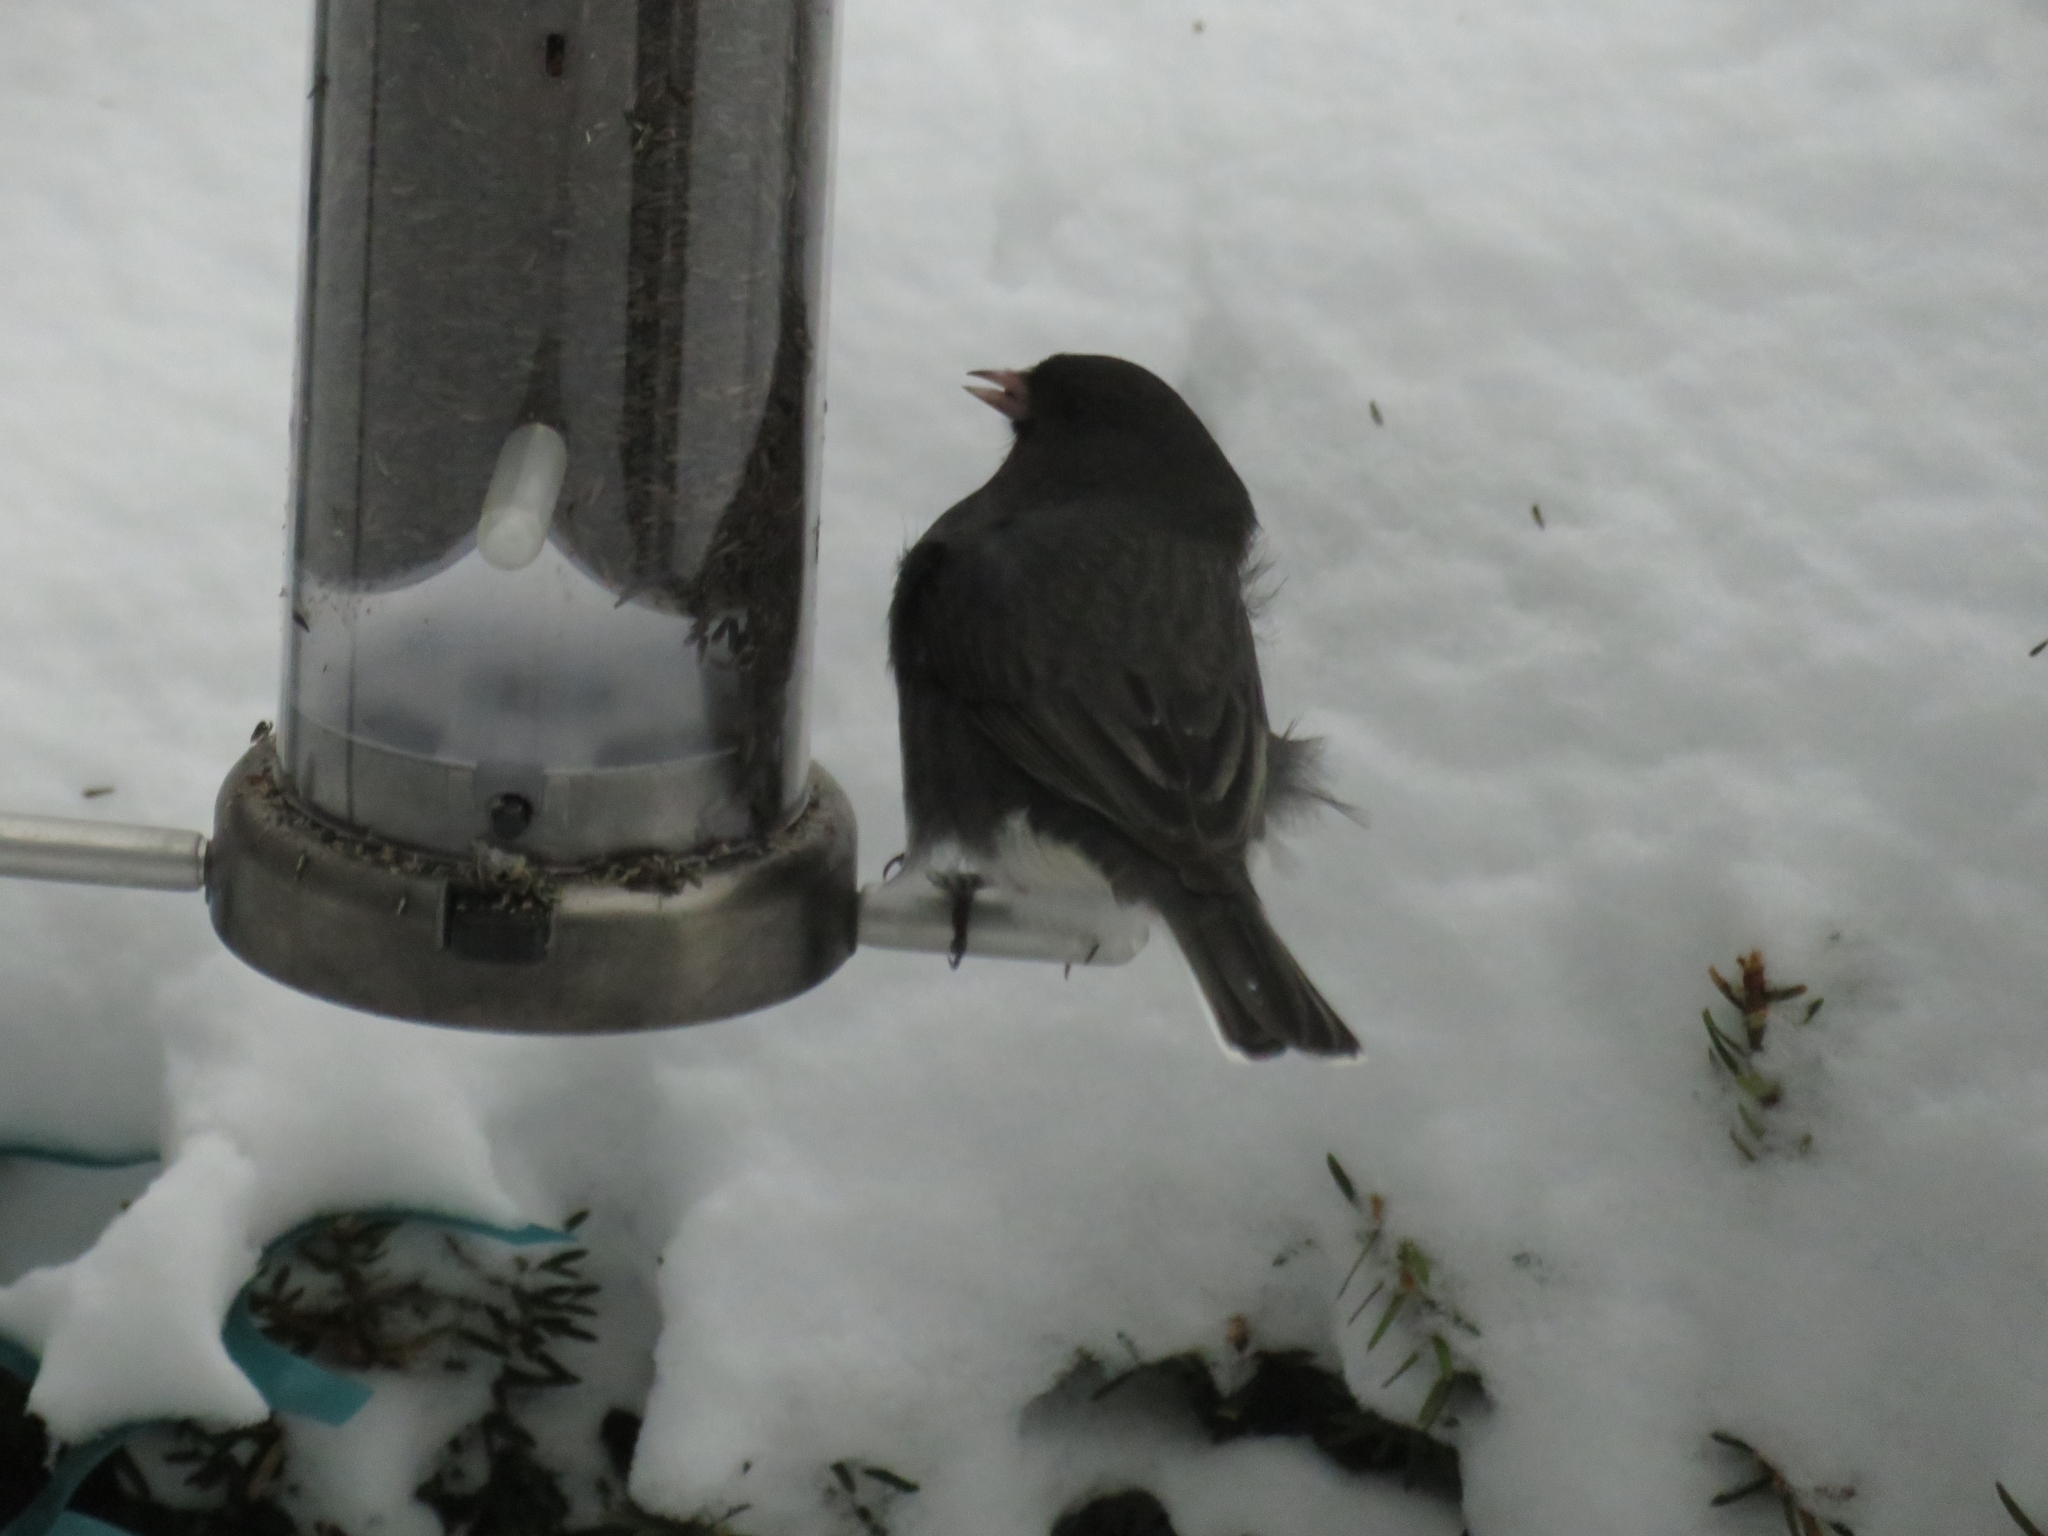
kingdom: Animalia
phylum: Chordata
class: Aves
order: Passeriformes
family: Passerellidae
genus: Junco
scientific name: Junco hyemalis
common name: Dark-eyed junco
